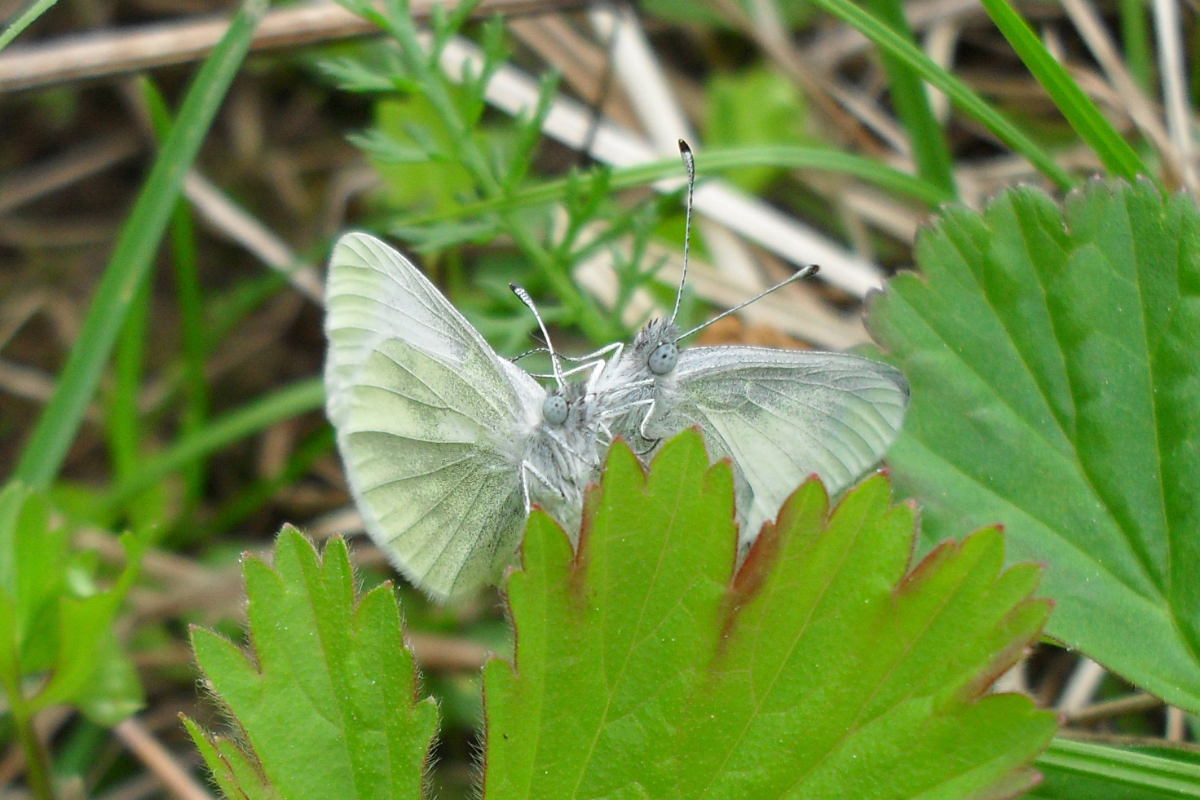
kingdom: Animalia
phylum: Arthropoda
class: Insecta
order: Lepidoptera
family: Pieridae
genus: Leptidea
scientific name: Leptidea
